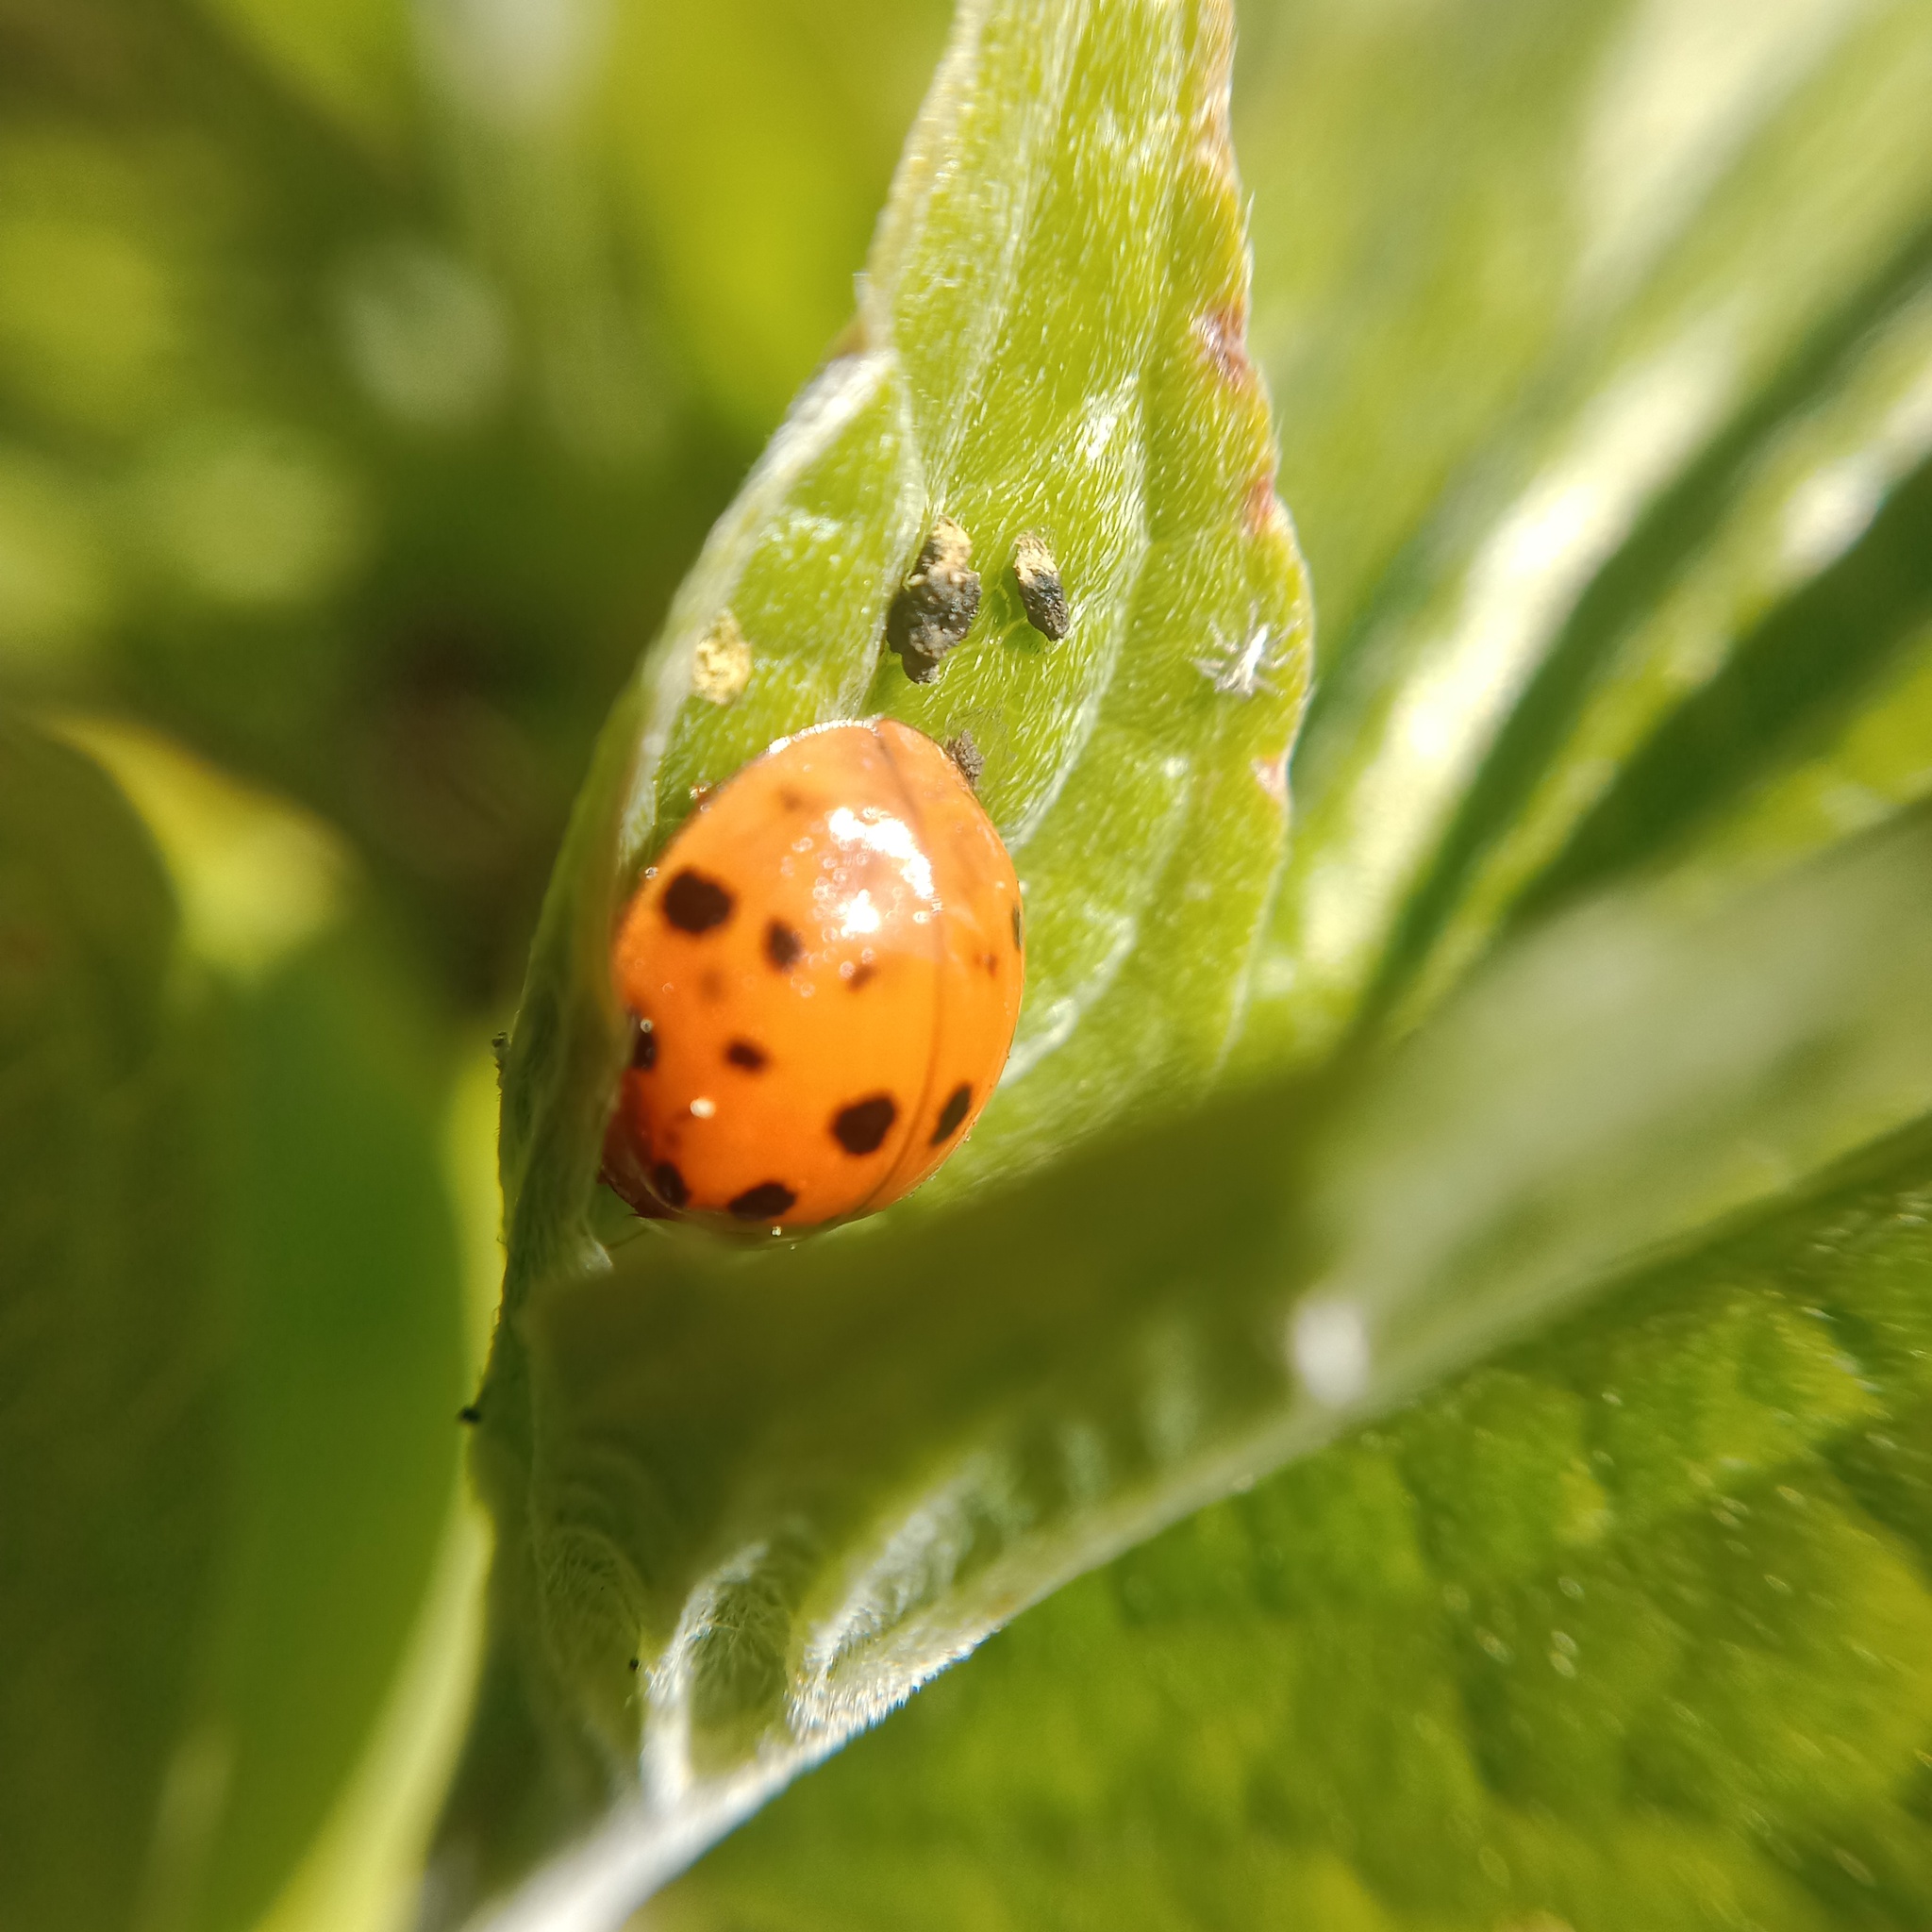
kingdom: Animalia
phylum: Arthropoda
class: Insecta
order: Coleoptera
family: Coccinellidae
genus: Harmonia
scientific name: Harmonia axyridis
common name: Harlequin ladybird
